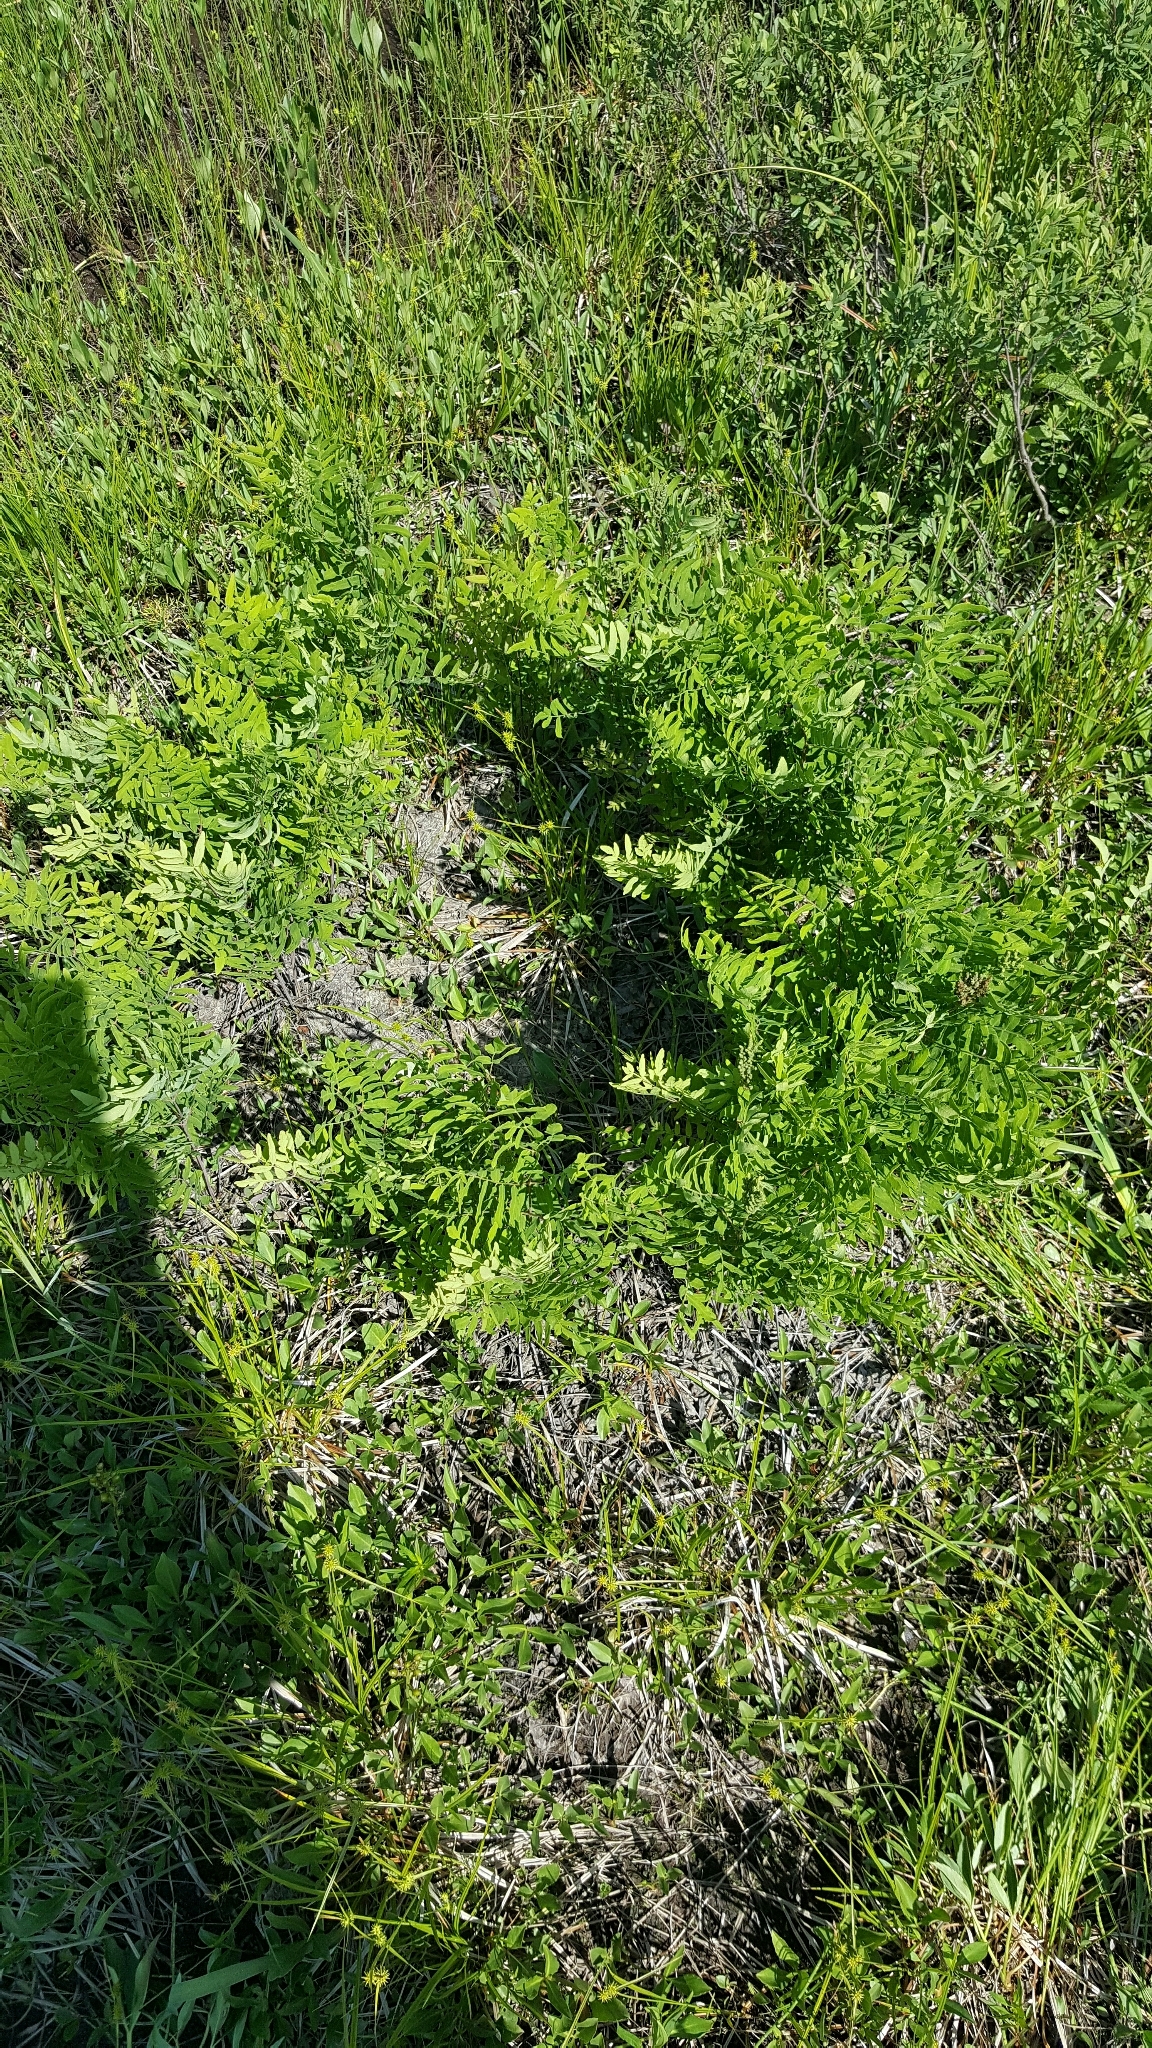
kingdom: Plantae
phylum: Tracheophyta
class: Polypodiopsida
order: Osmundales
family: Osmundaceae
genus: Osmunda
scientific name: Osmunda spectabilis
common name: American royal fern
